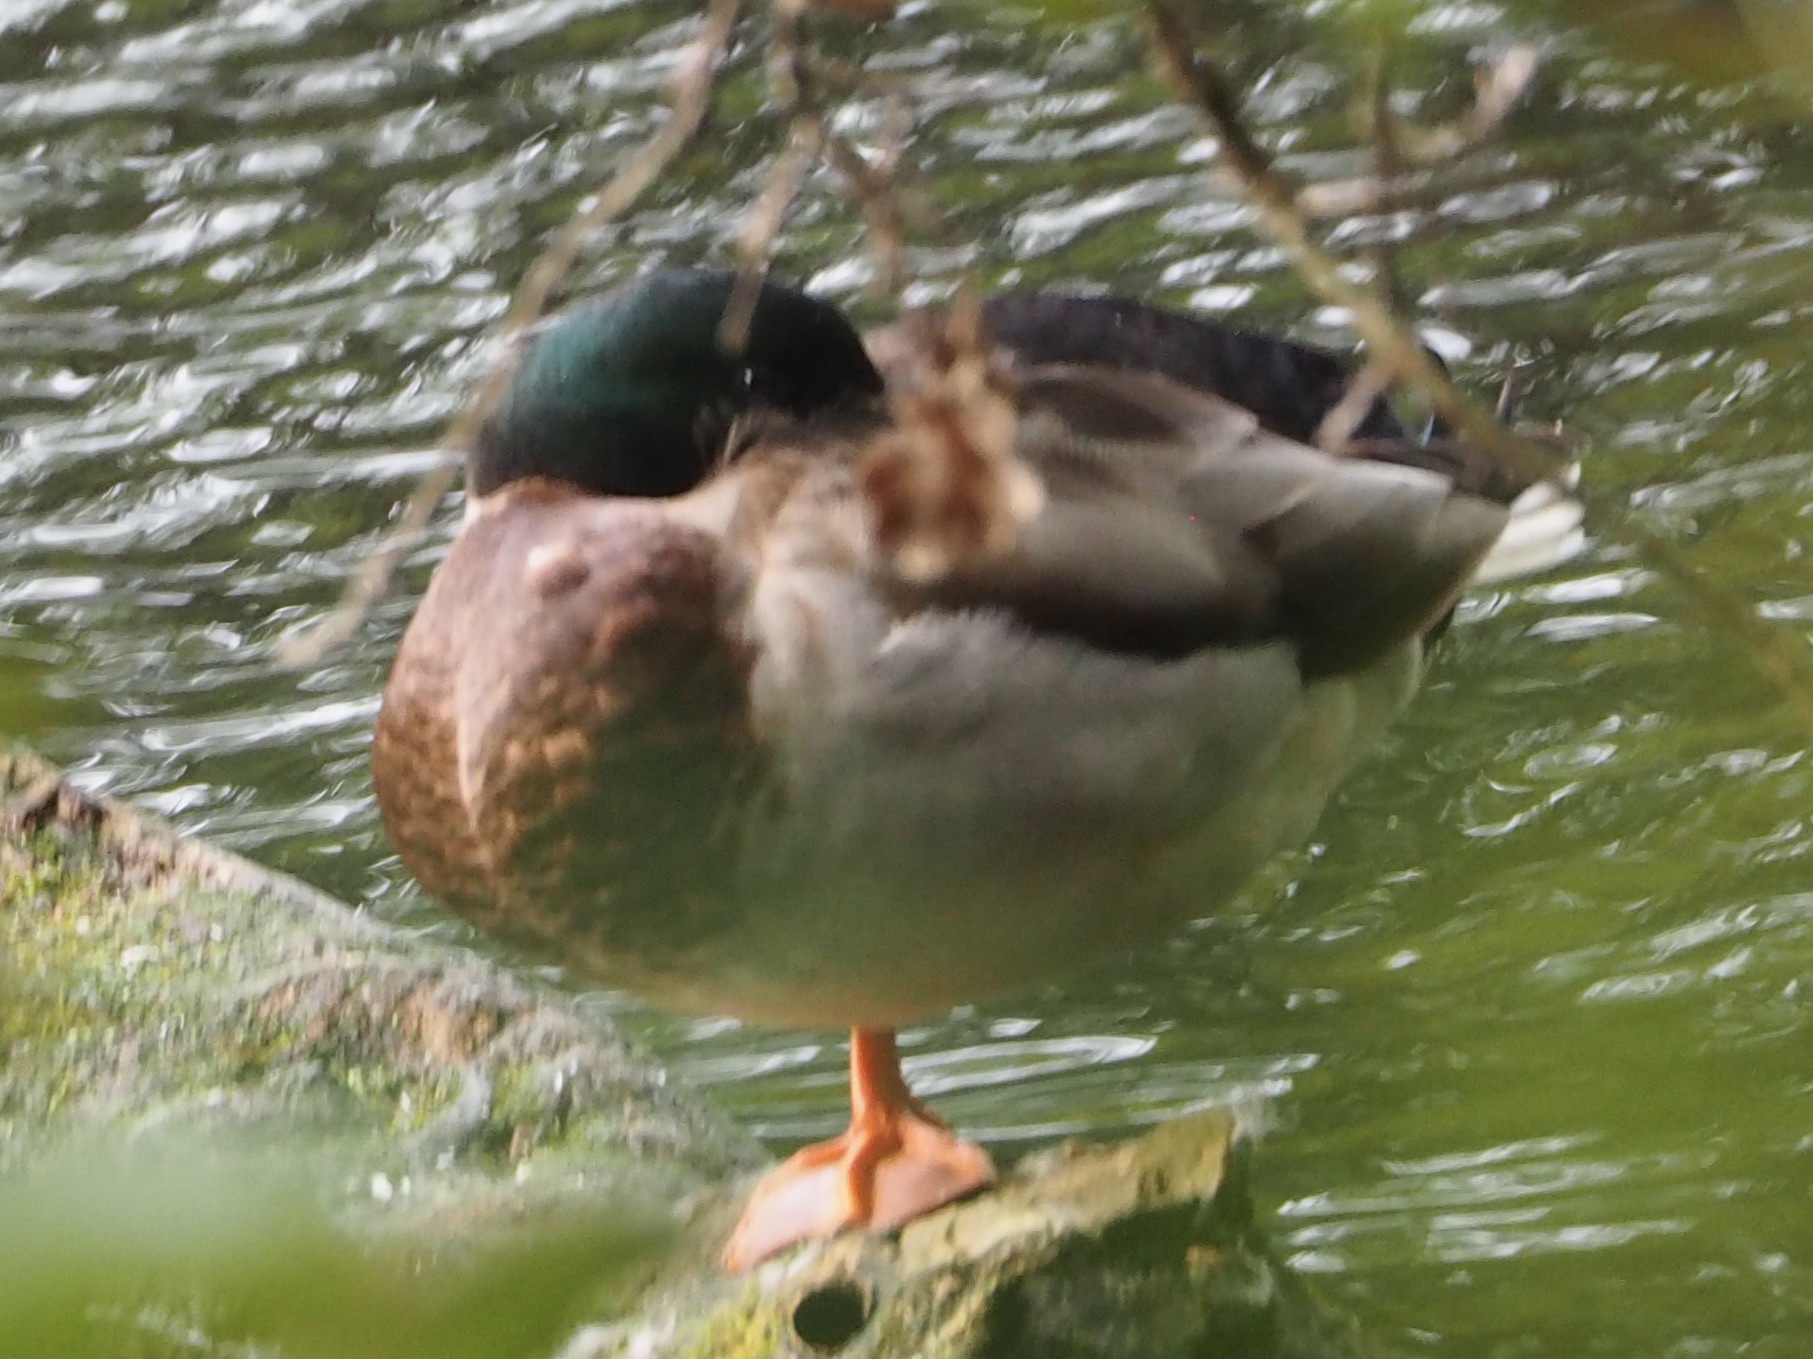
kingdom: Animalia
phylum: Chordata
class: Aves
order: Anseriformes
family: Anatidae
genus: Anas
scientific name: Anas platyrhynchos
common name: Mallard
